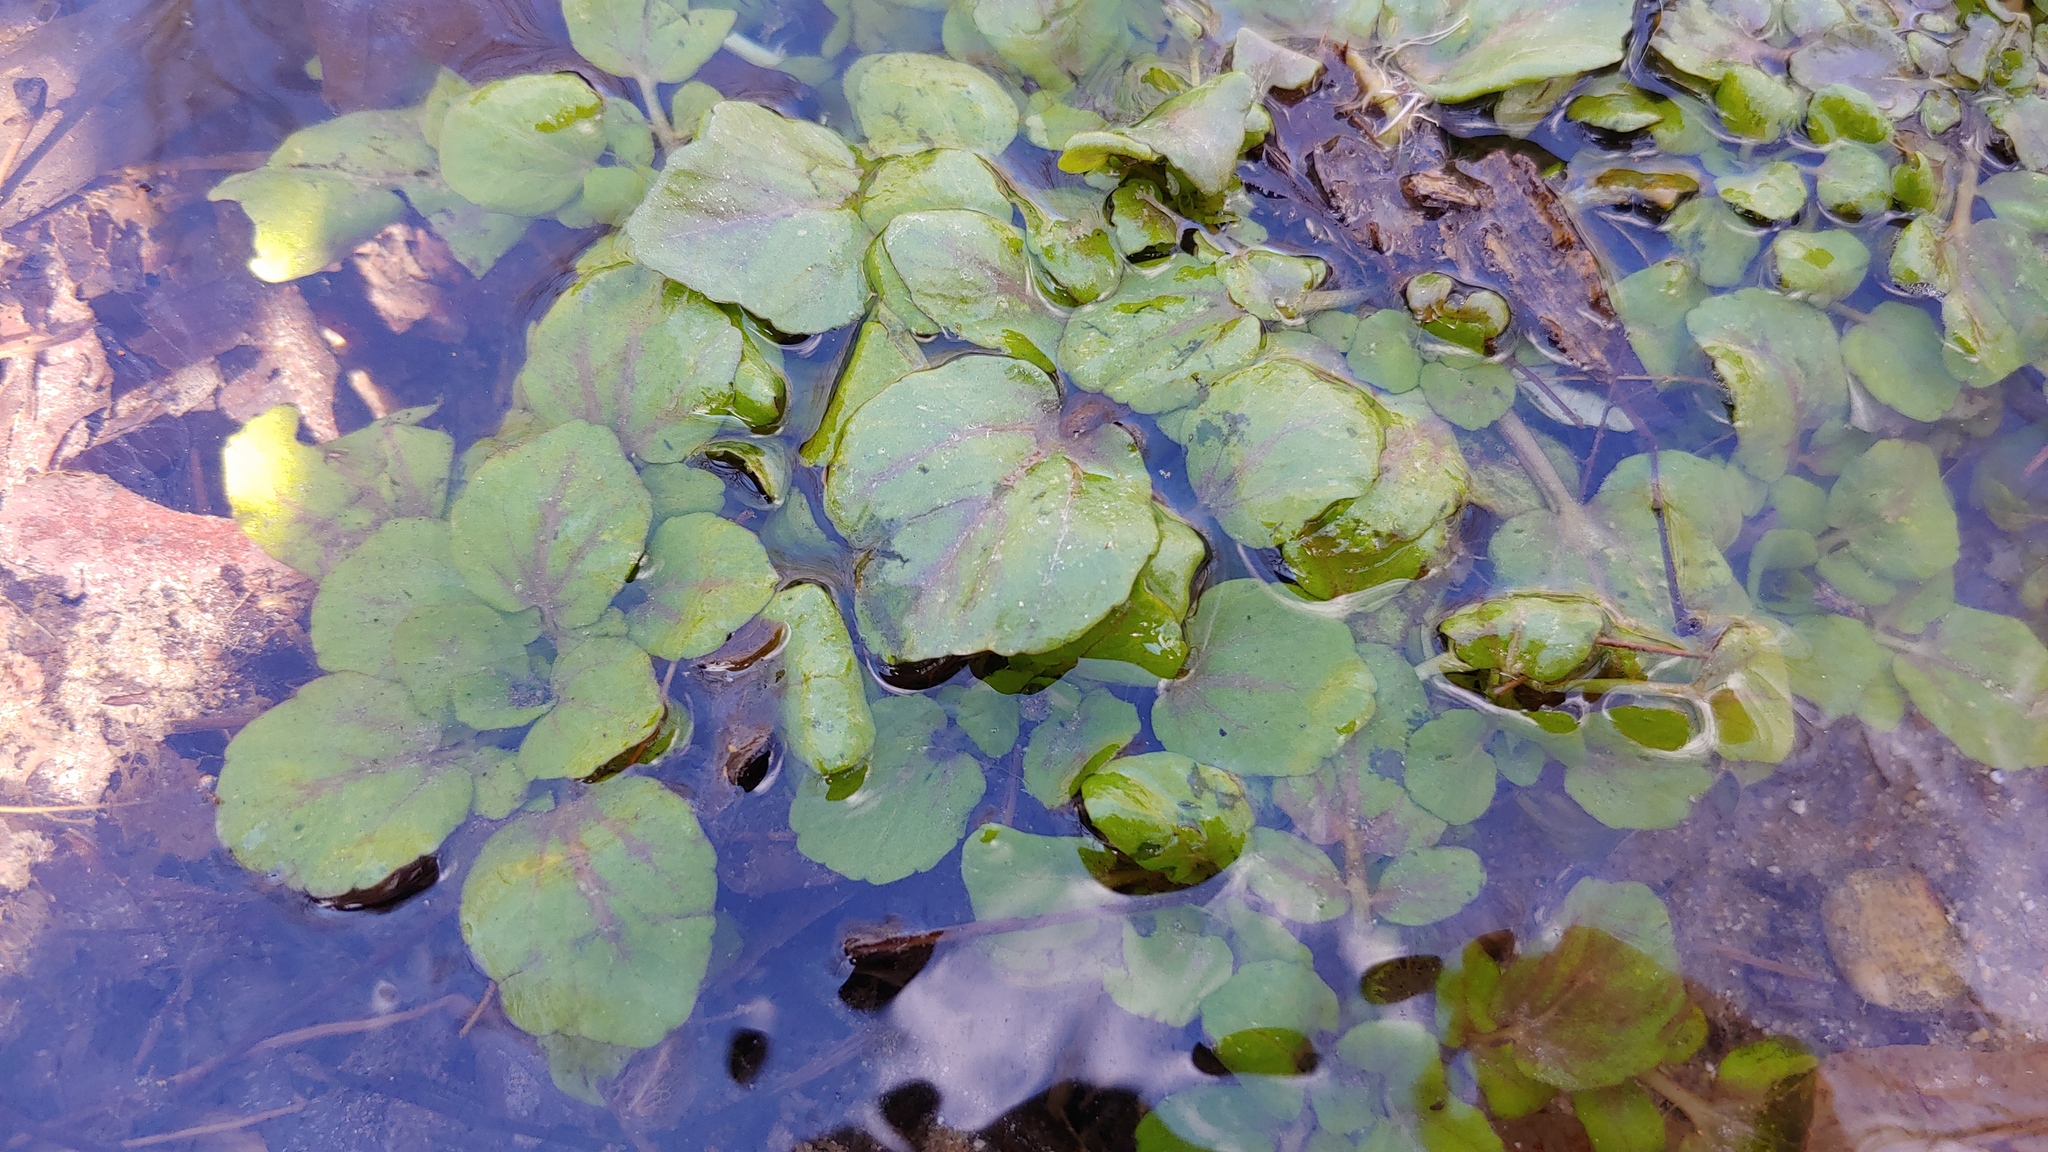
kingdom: Plantae
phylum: Tracheophyta
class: Magnoliopsida
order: Brassicales
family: Brassicaceae
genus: Nasturtium
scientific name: Nasturtium officinale
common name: Watercress
